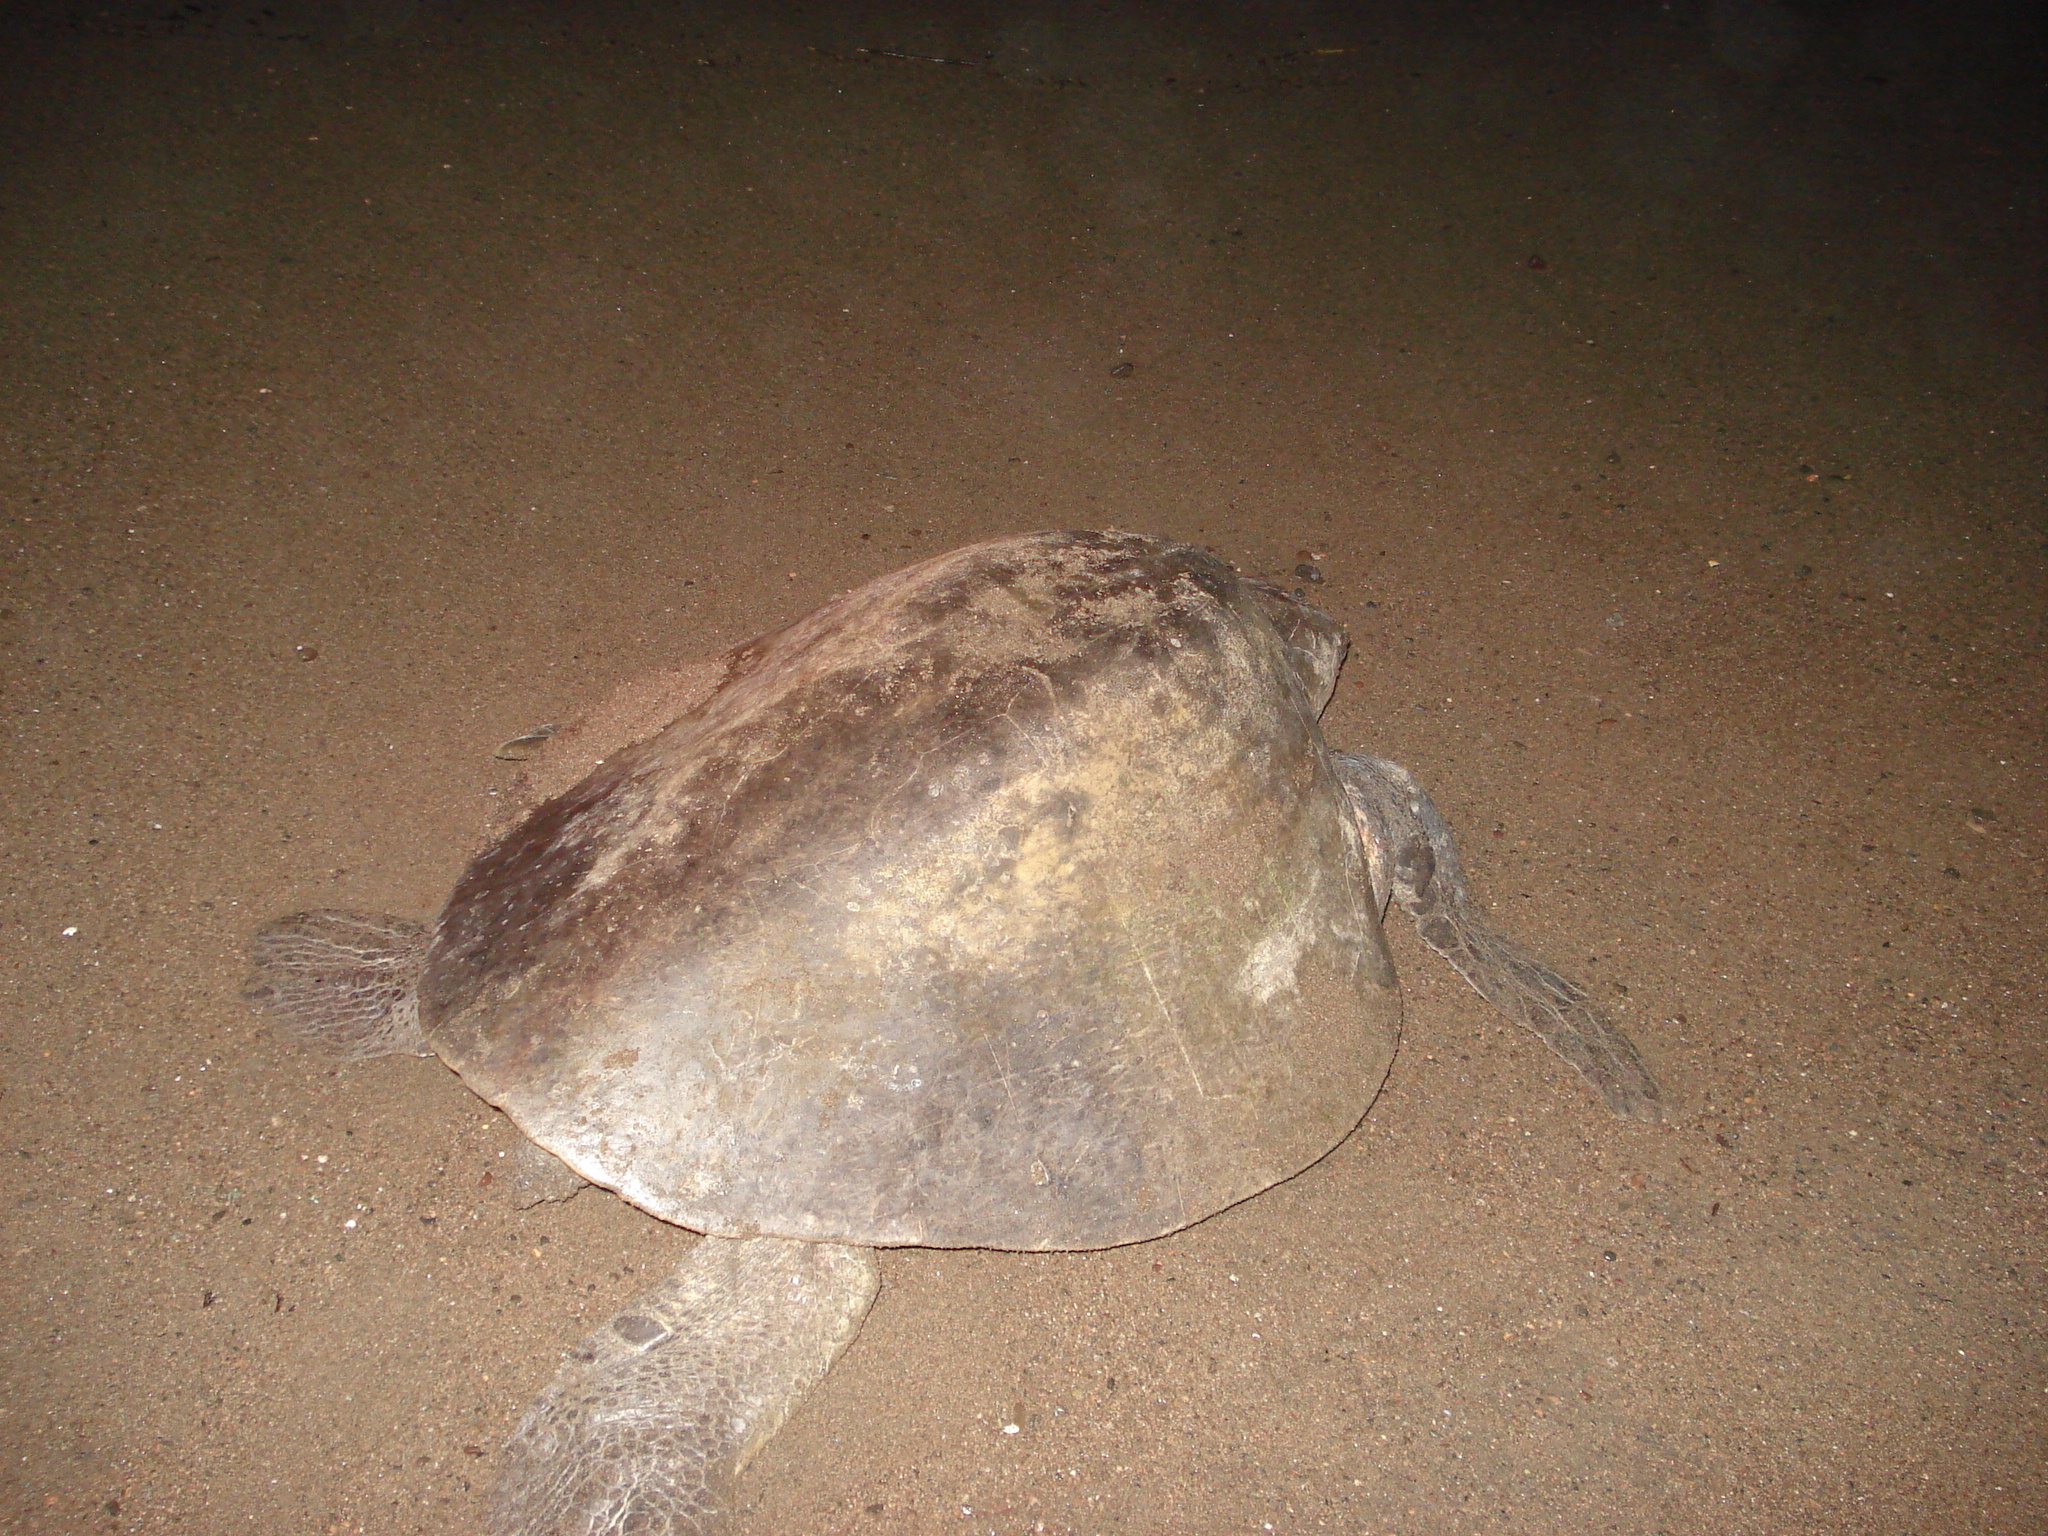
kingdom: Animalia
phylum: Chordata
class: Testudines
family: Cheloniidae
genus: Lepidochelys
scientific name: Lepidochelys olivacea
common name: Olive ridley
